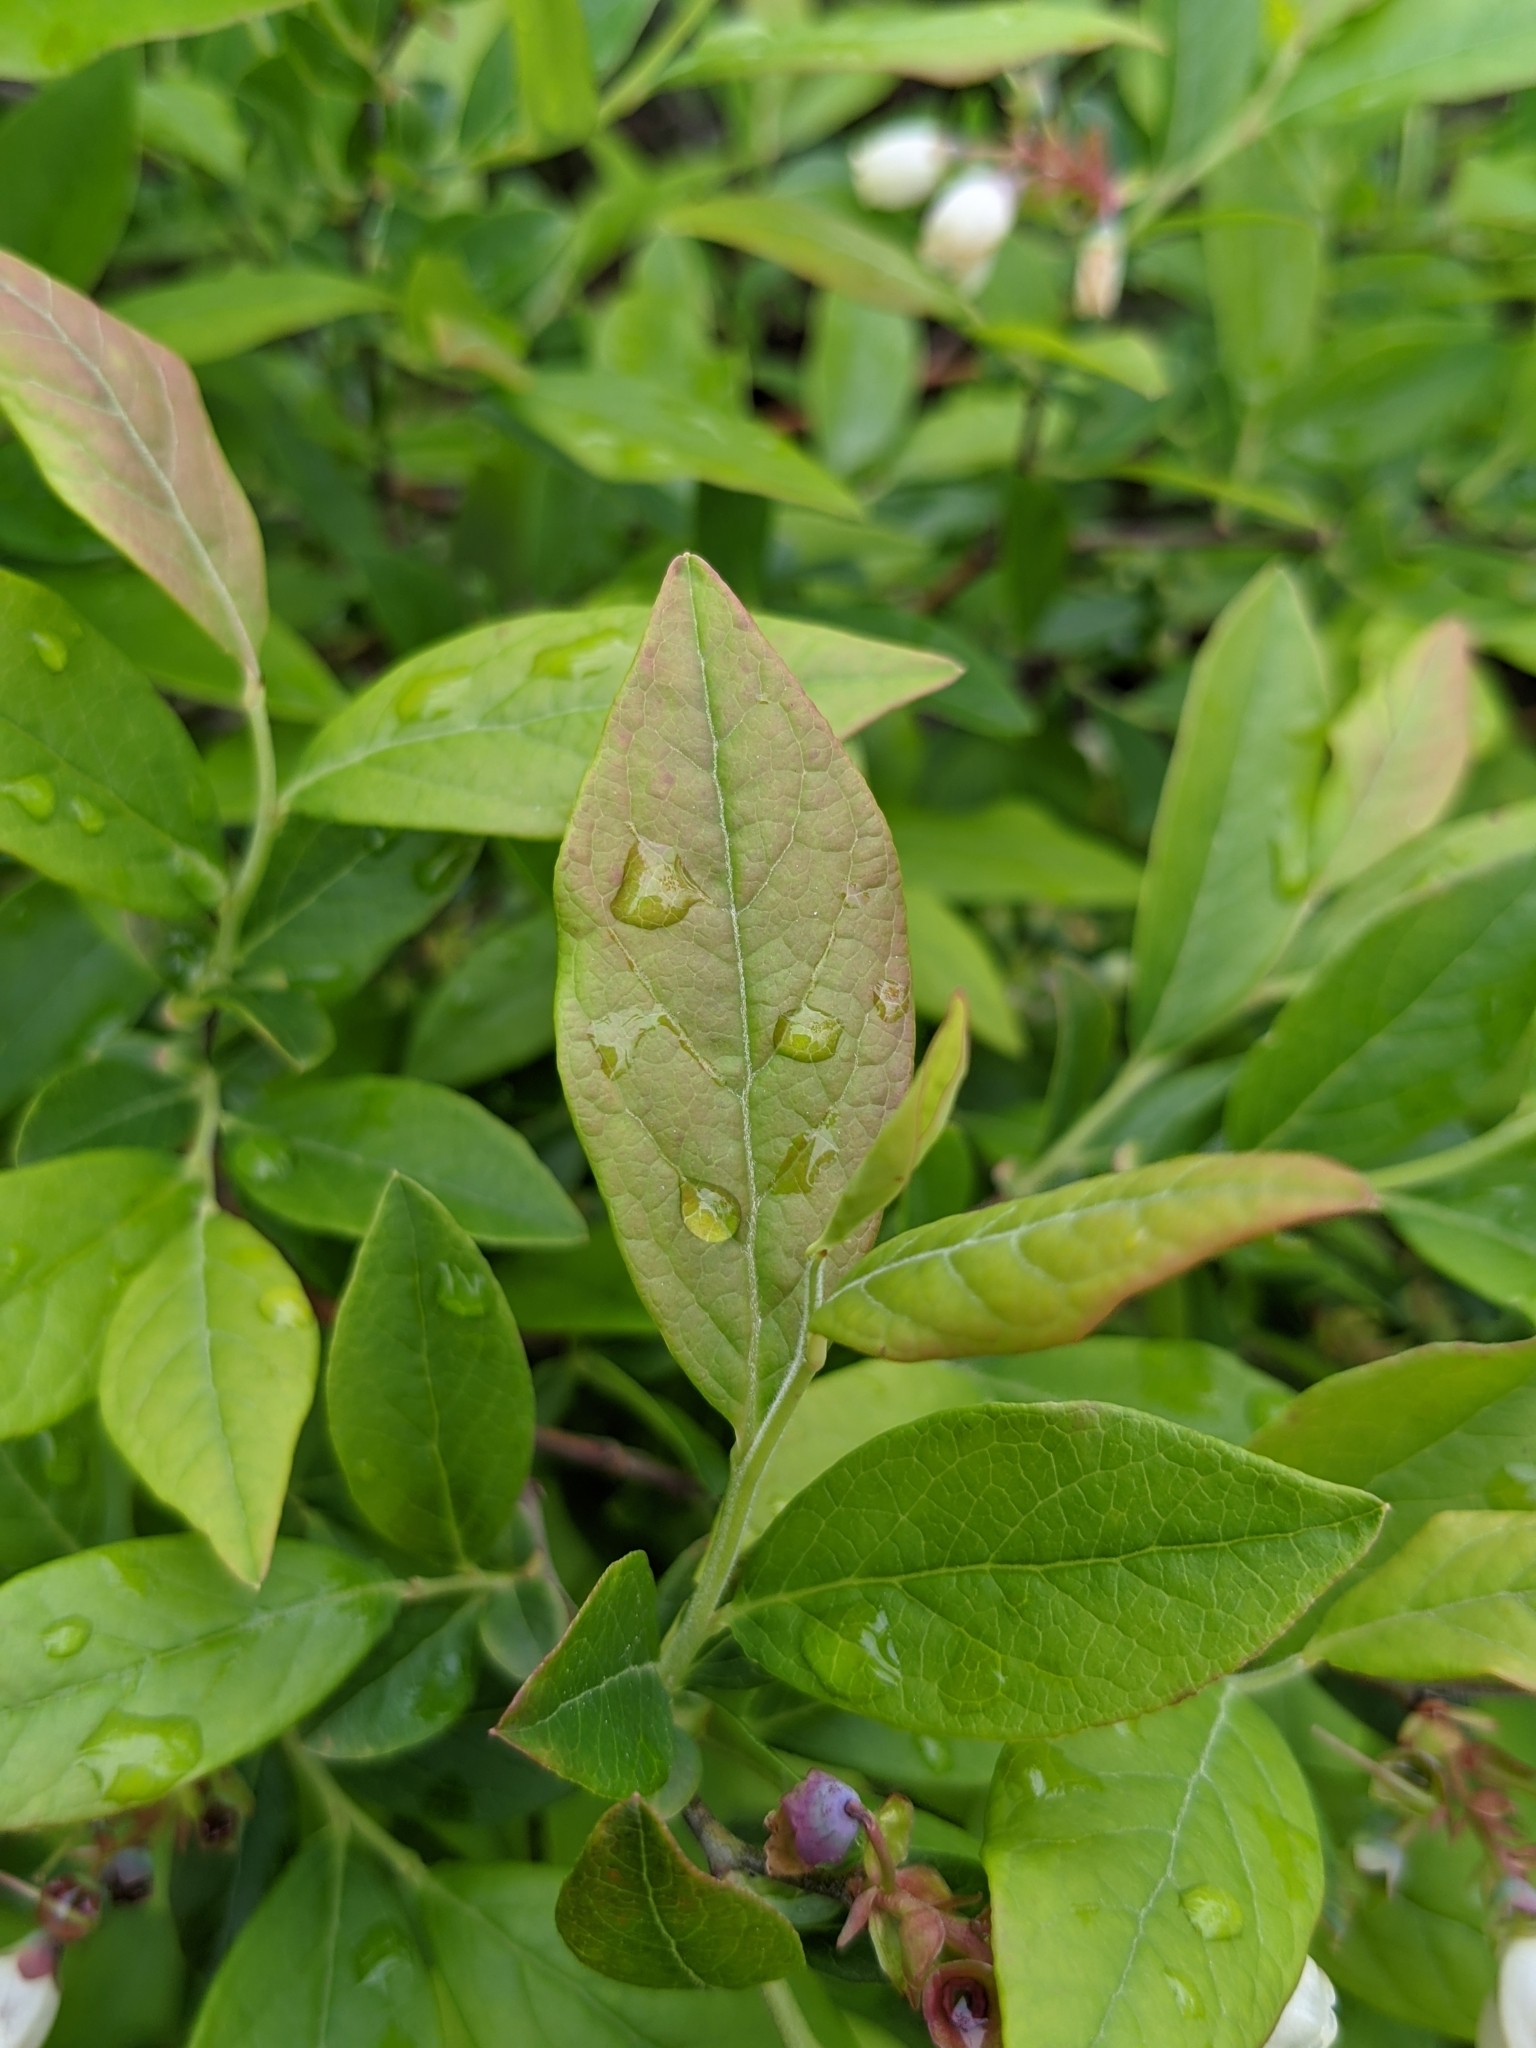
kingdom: Plantae
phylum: Tracheophyta
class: Magnoliopsida
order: Ericales
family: Ericaceae
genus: Vaccinium
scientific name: Vaccinium corymbosum
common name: Blueberry
